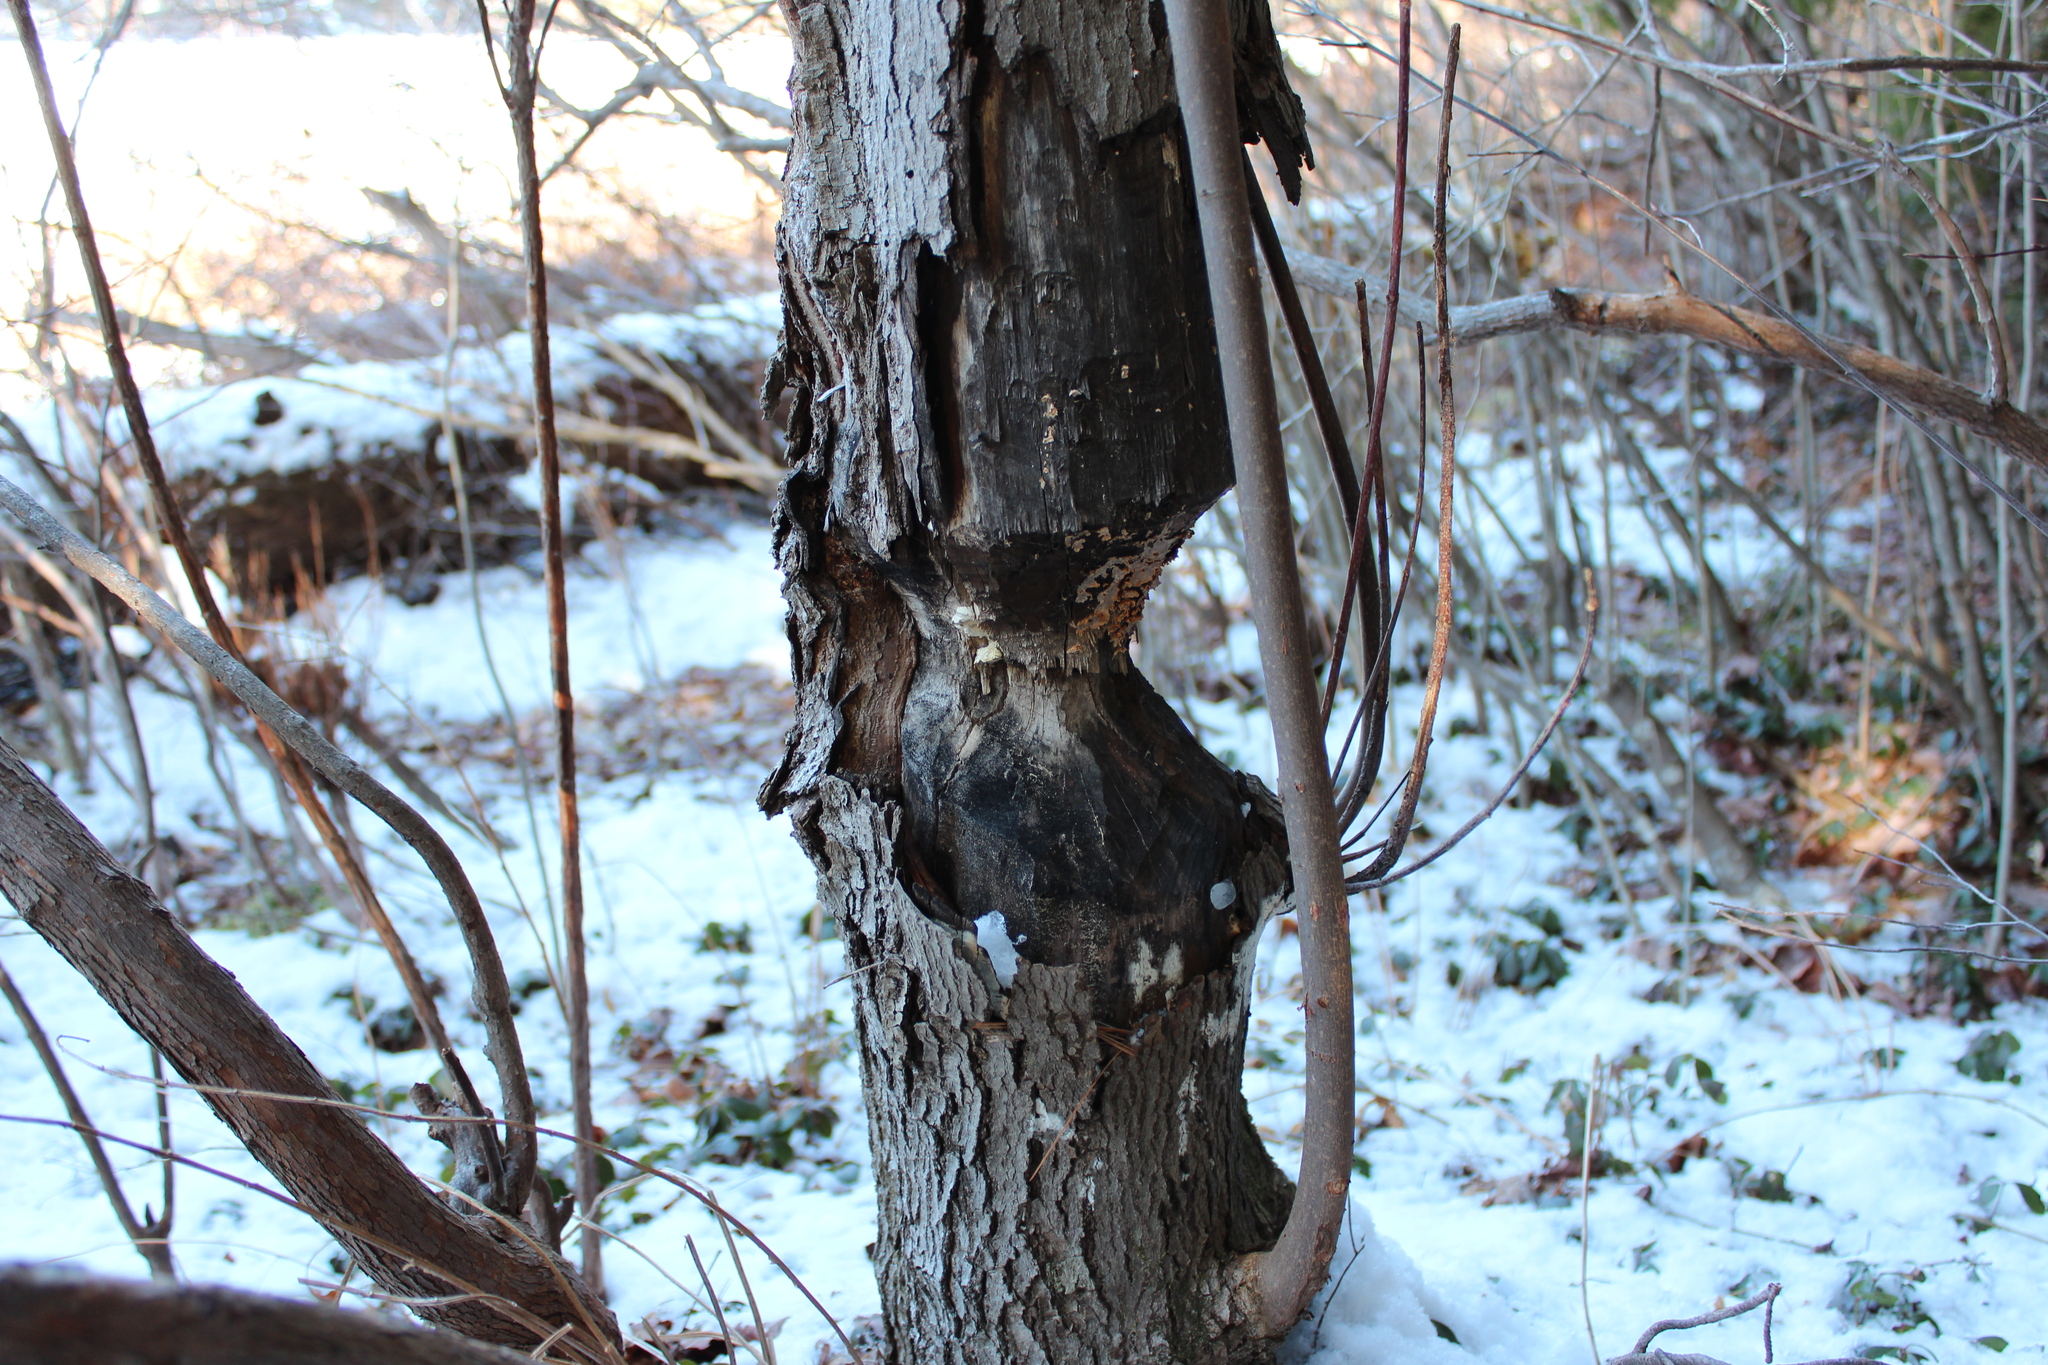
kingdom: Animalia
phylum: Chordata
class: Mammalia
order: Rodentia
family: Castoridae
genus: Castor
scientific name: Castor canadensis
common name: American beaver
